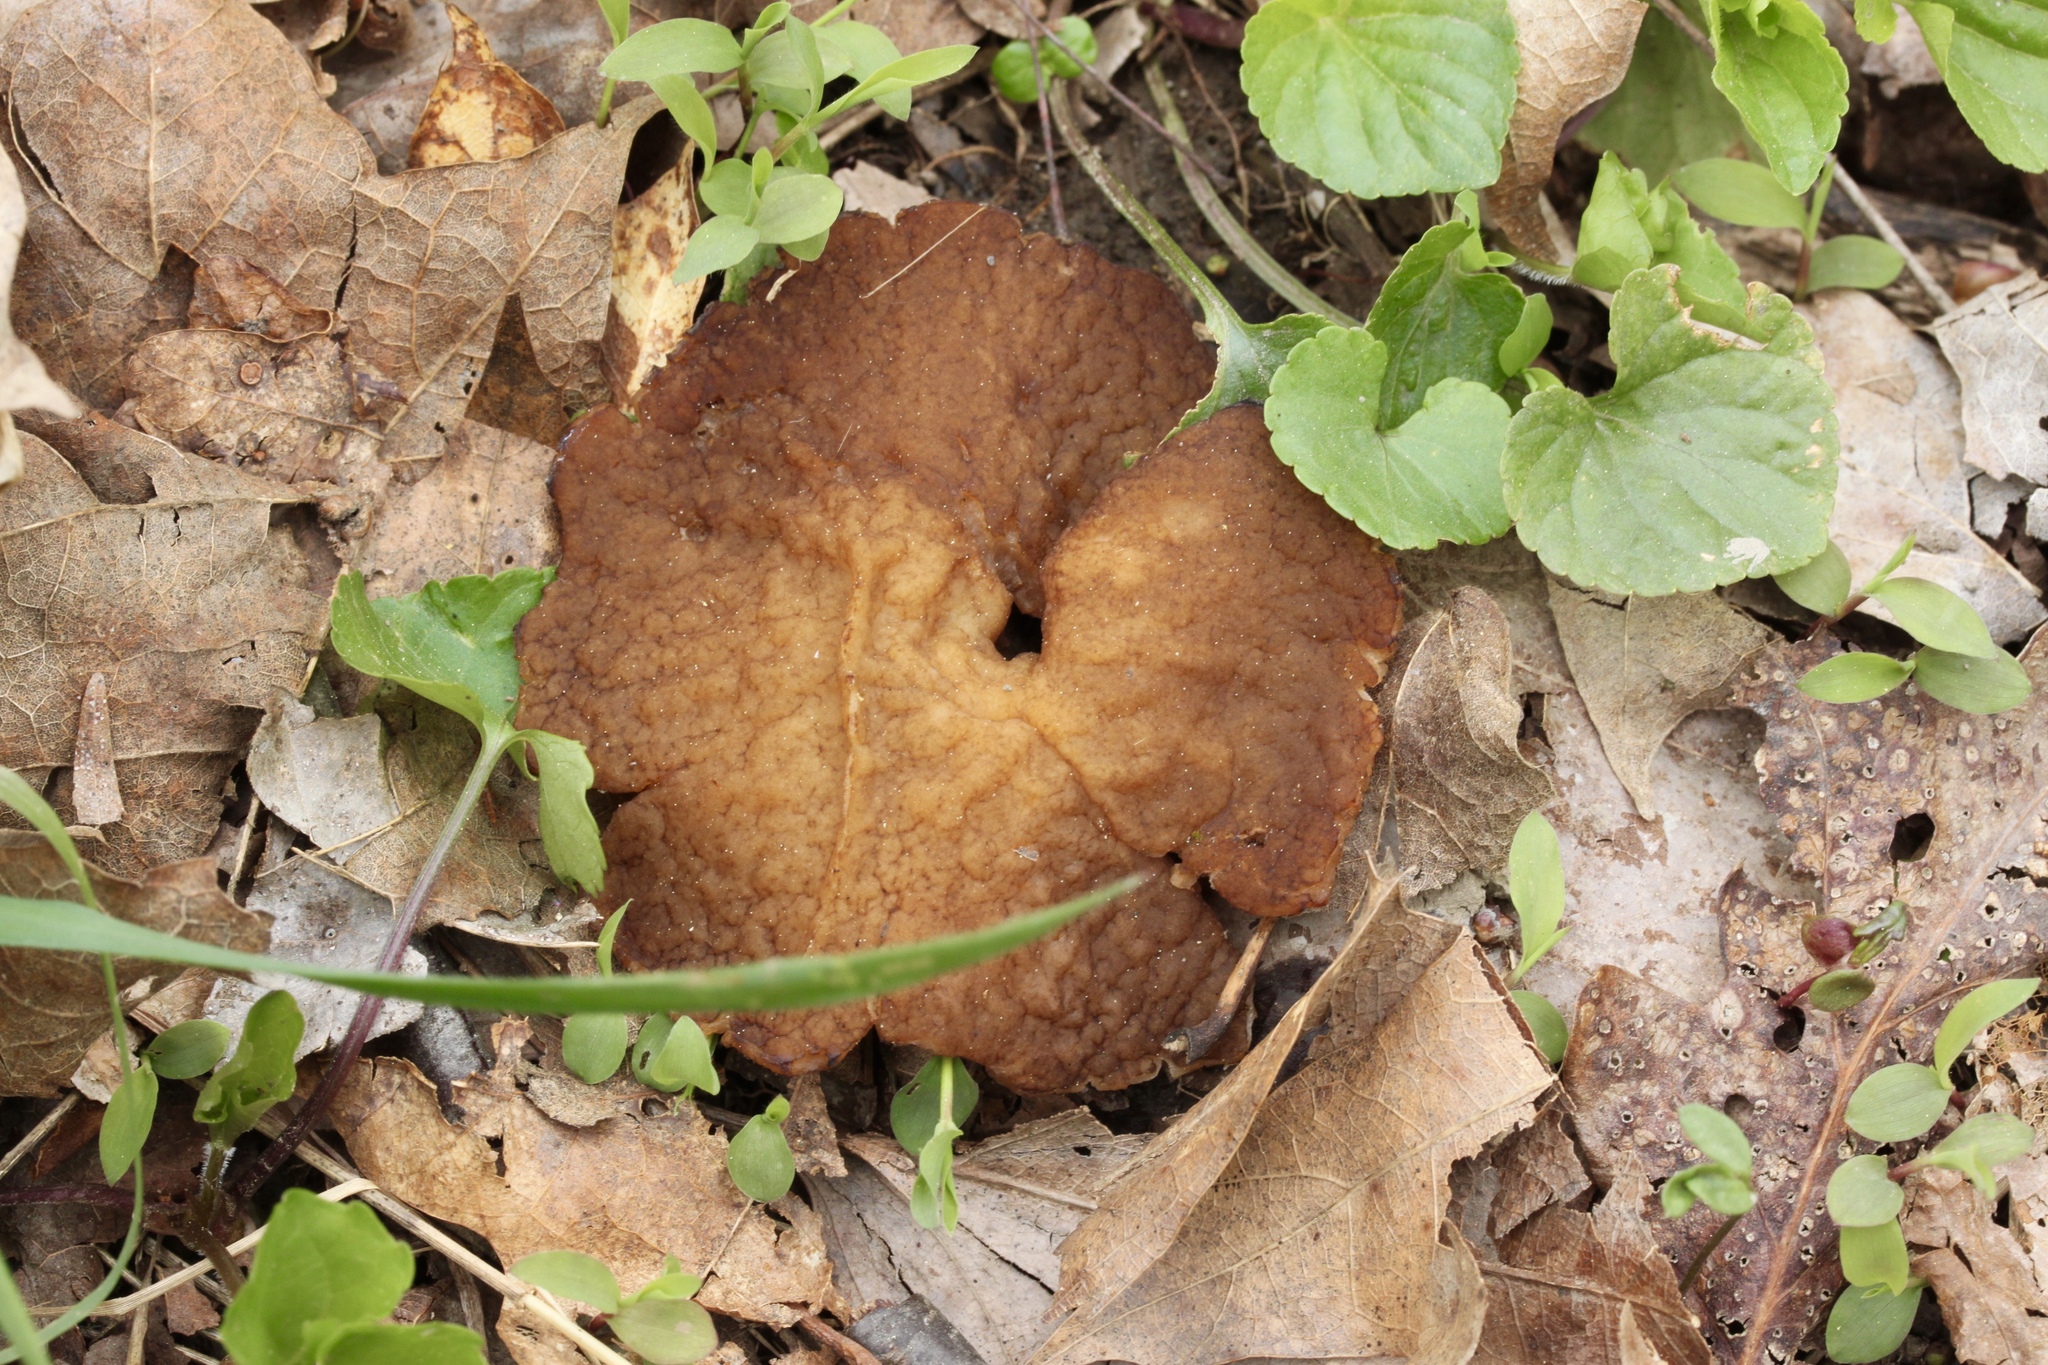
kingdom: Fungi
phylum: Ascomycota
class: Pezizomycetes
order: Pezizales
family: Morchellaceae
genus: Disciotis
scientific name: Disciotis venosa
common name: Bleach cup
